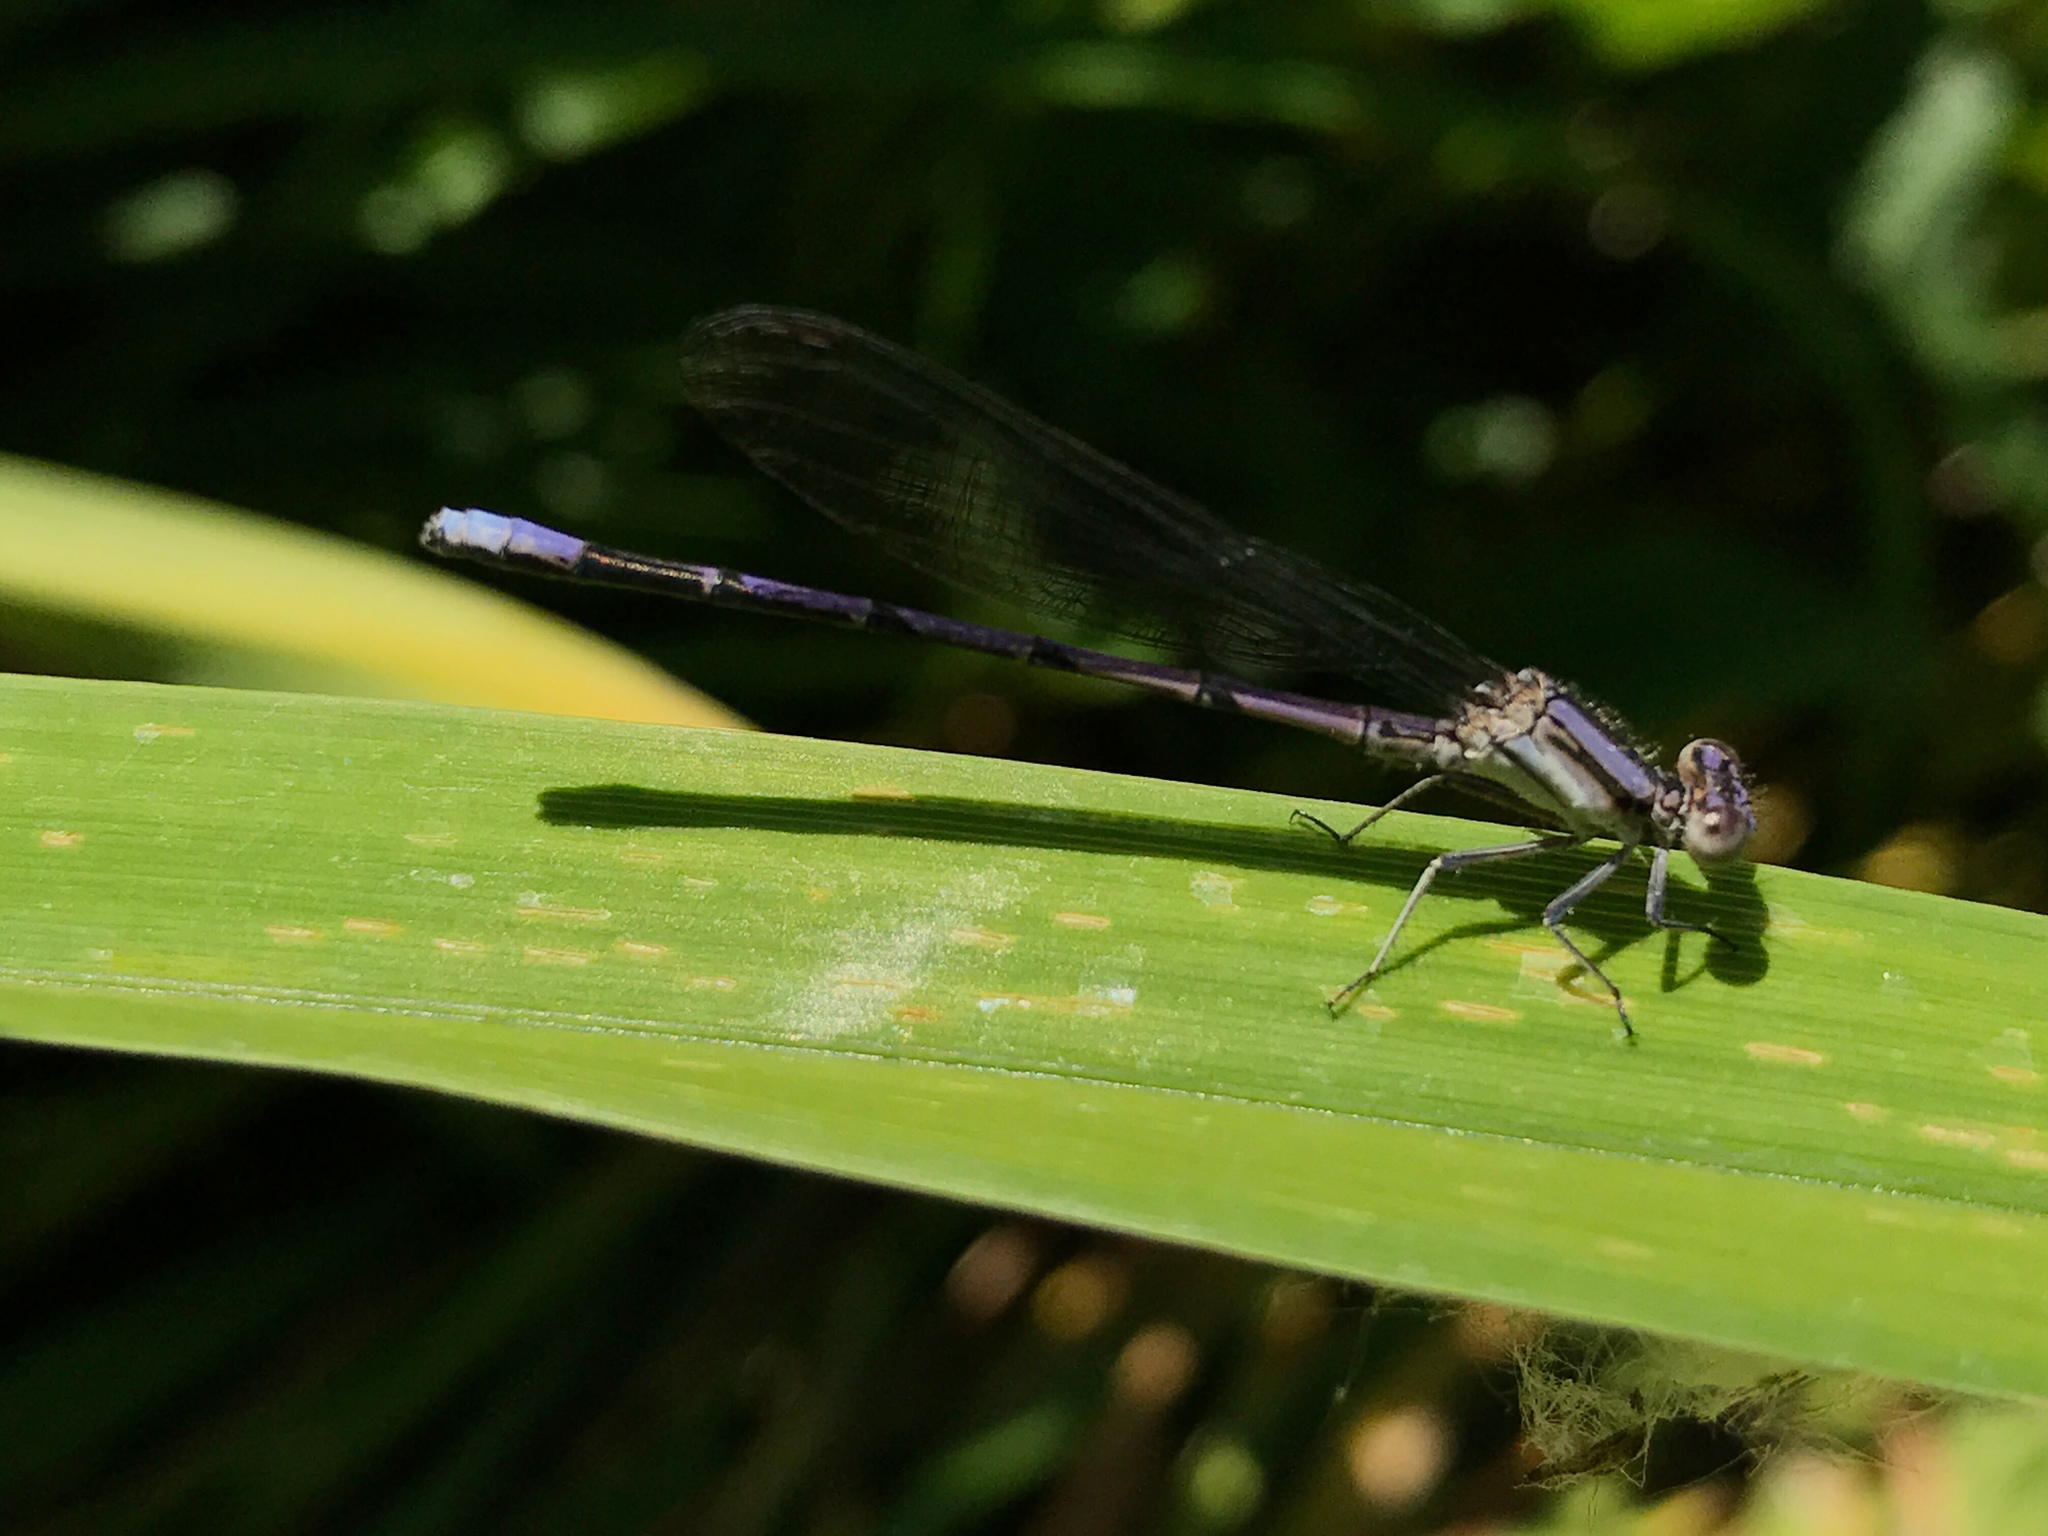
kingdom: Animalia
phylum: Arthropoda
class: Insecta
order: Odonata
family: Coenagrionidae
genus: Argia
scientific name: Argia fumipennis
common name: Variable dancer
